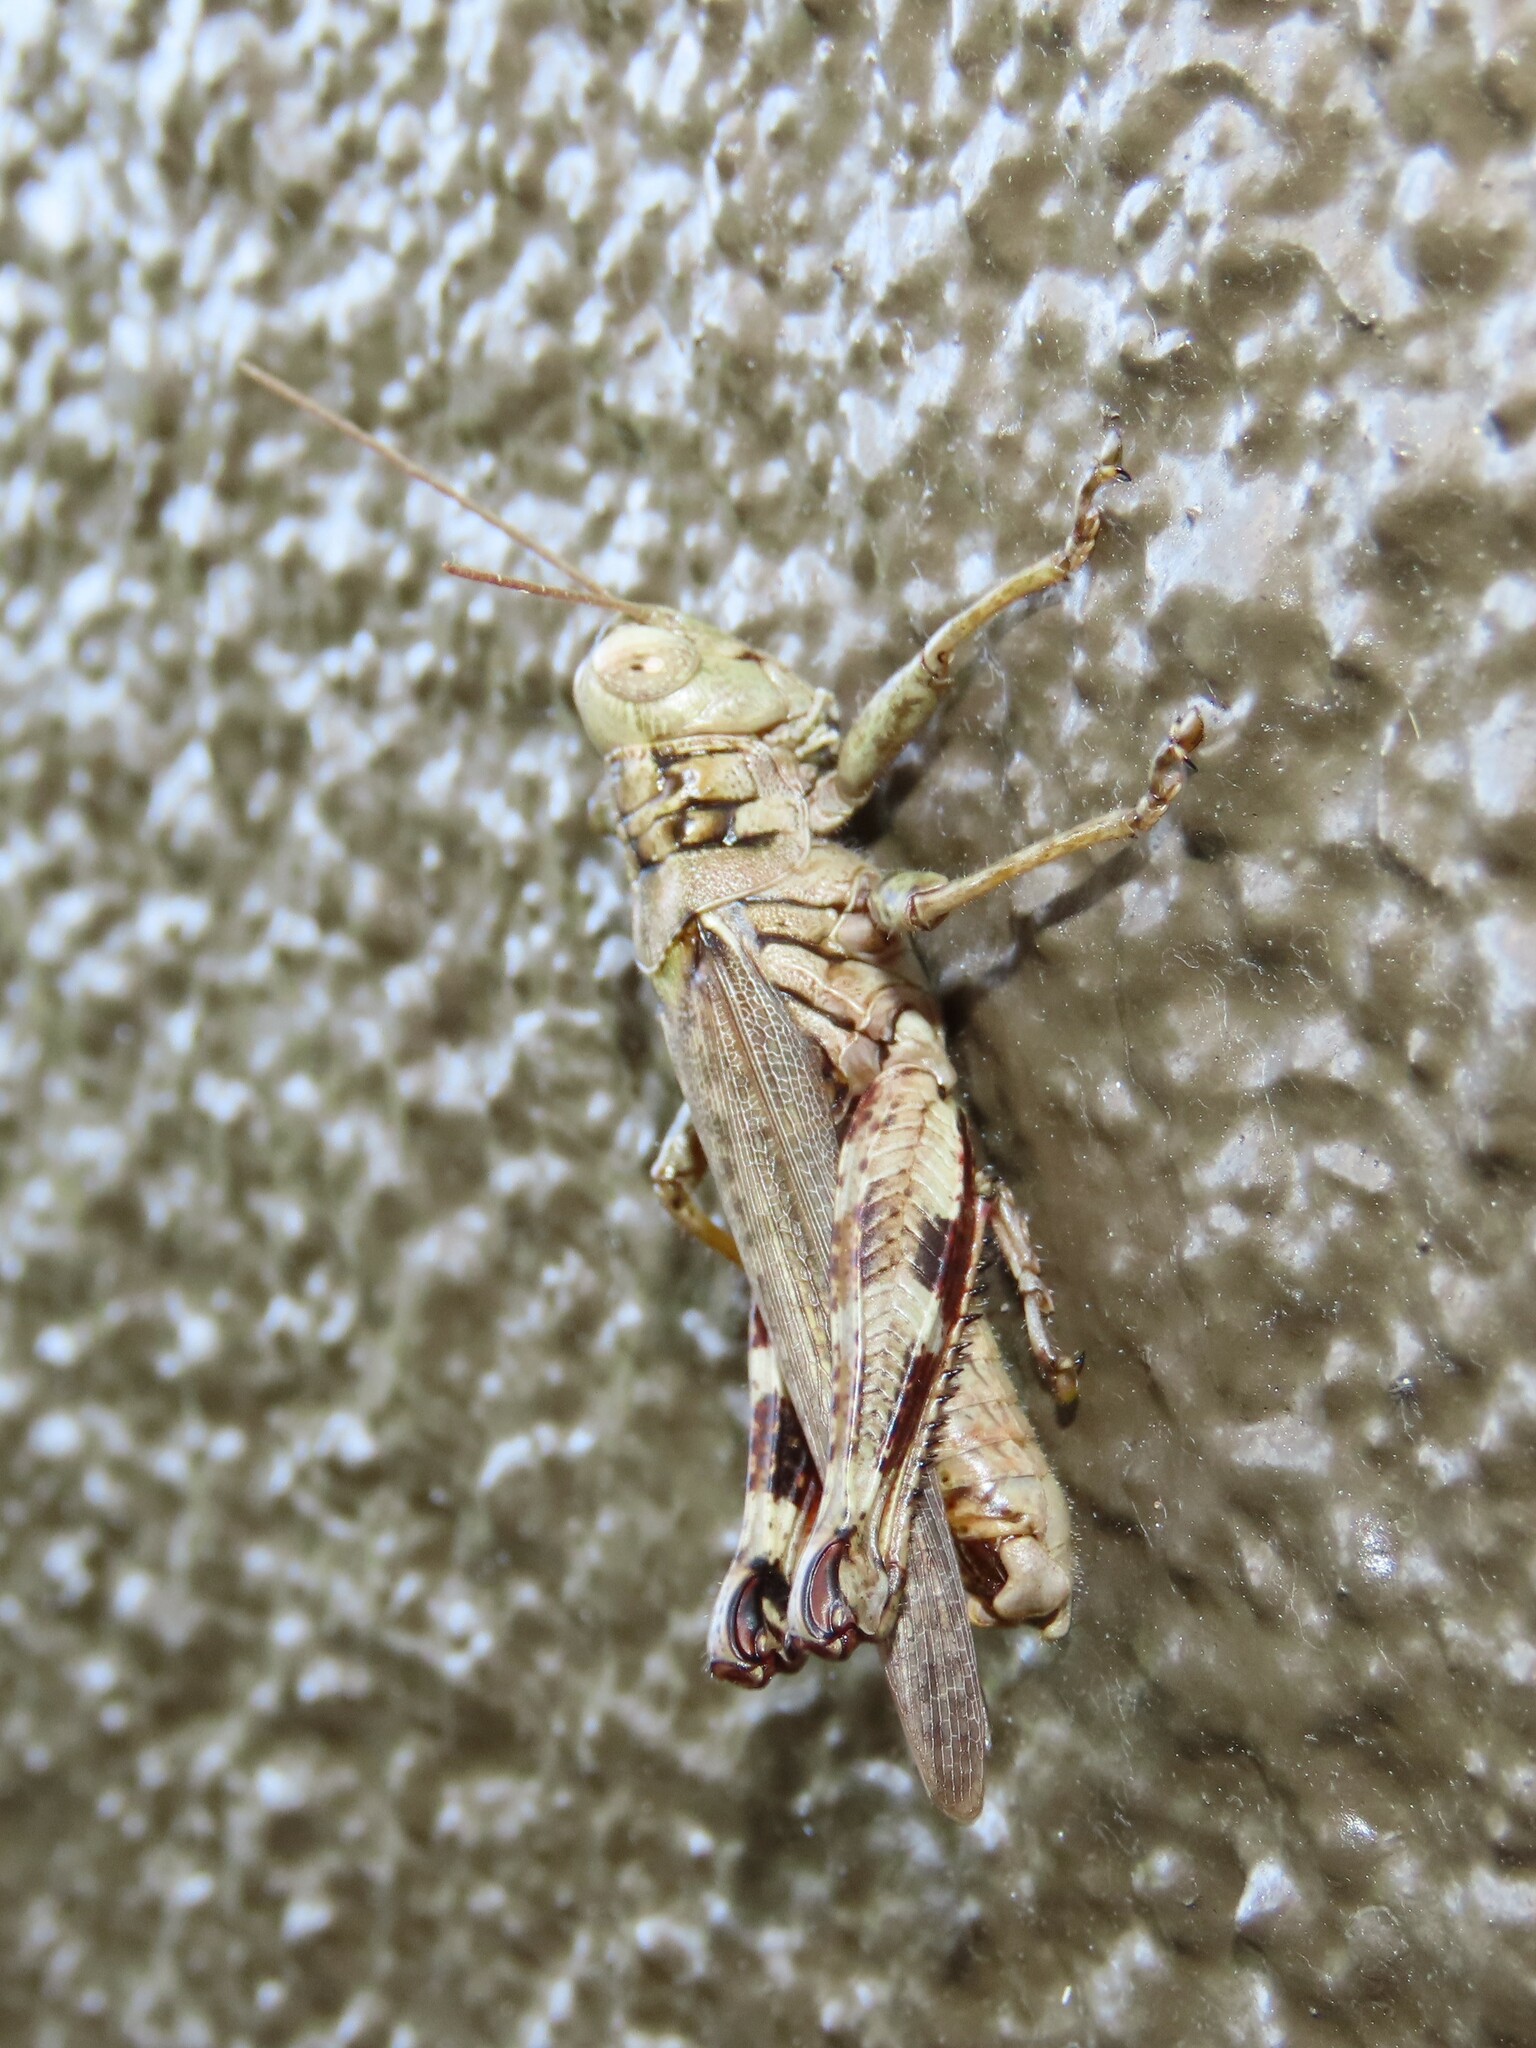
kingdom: Animalia
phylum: Arthropoda
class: Insecta
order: Orthoptera
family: Acrididae
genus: Melanoplus
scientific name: Melanoplus punctulatus
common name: Pine-tree spur-throat grasshopper
